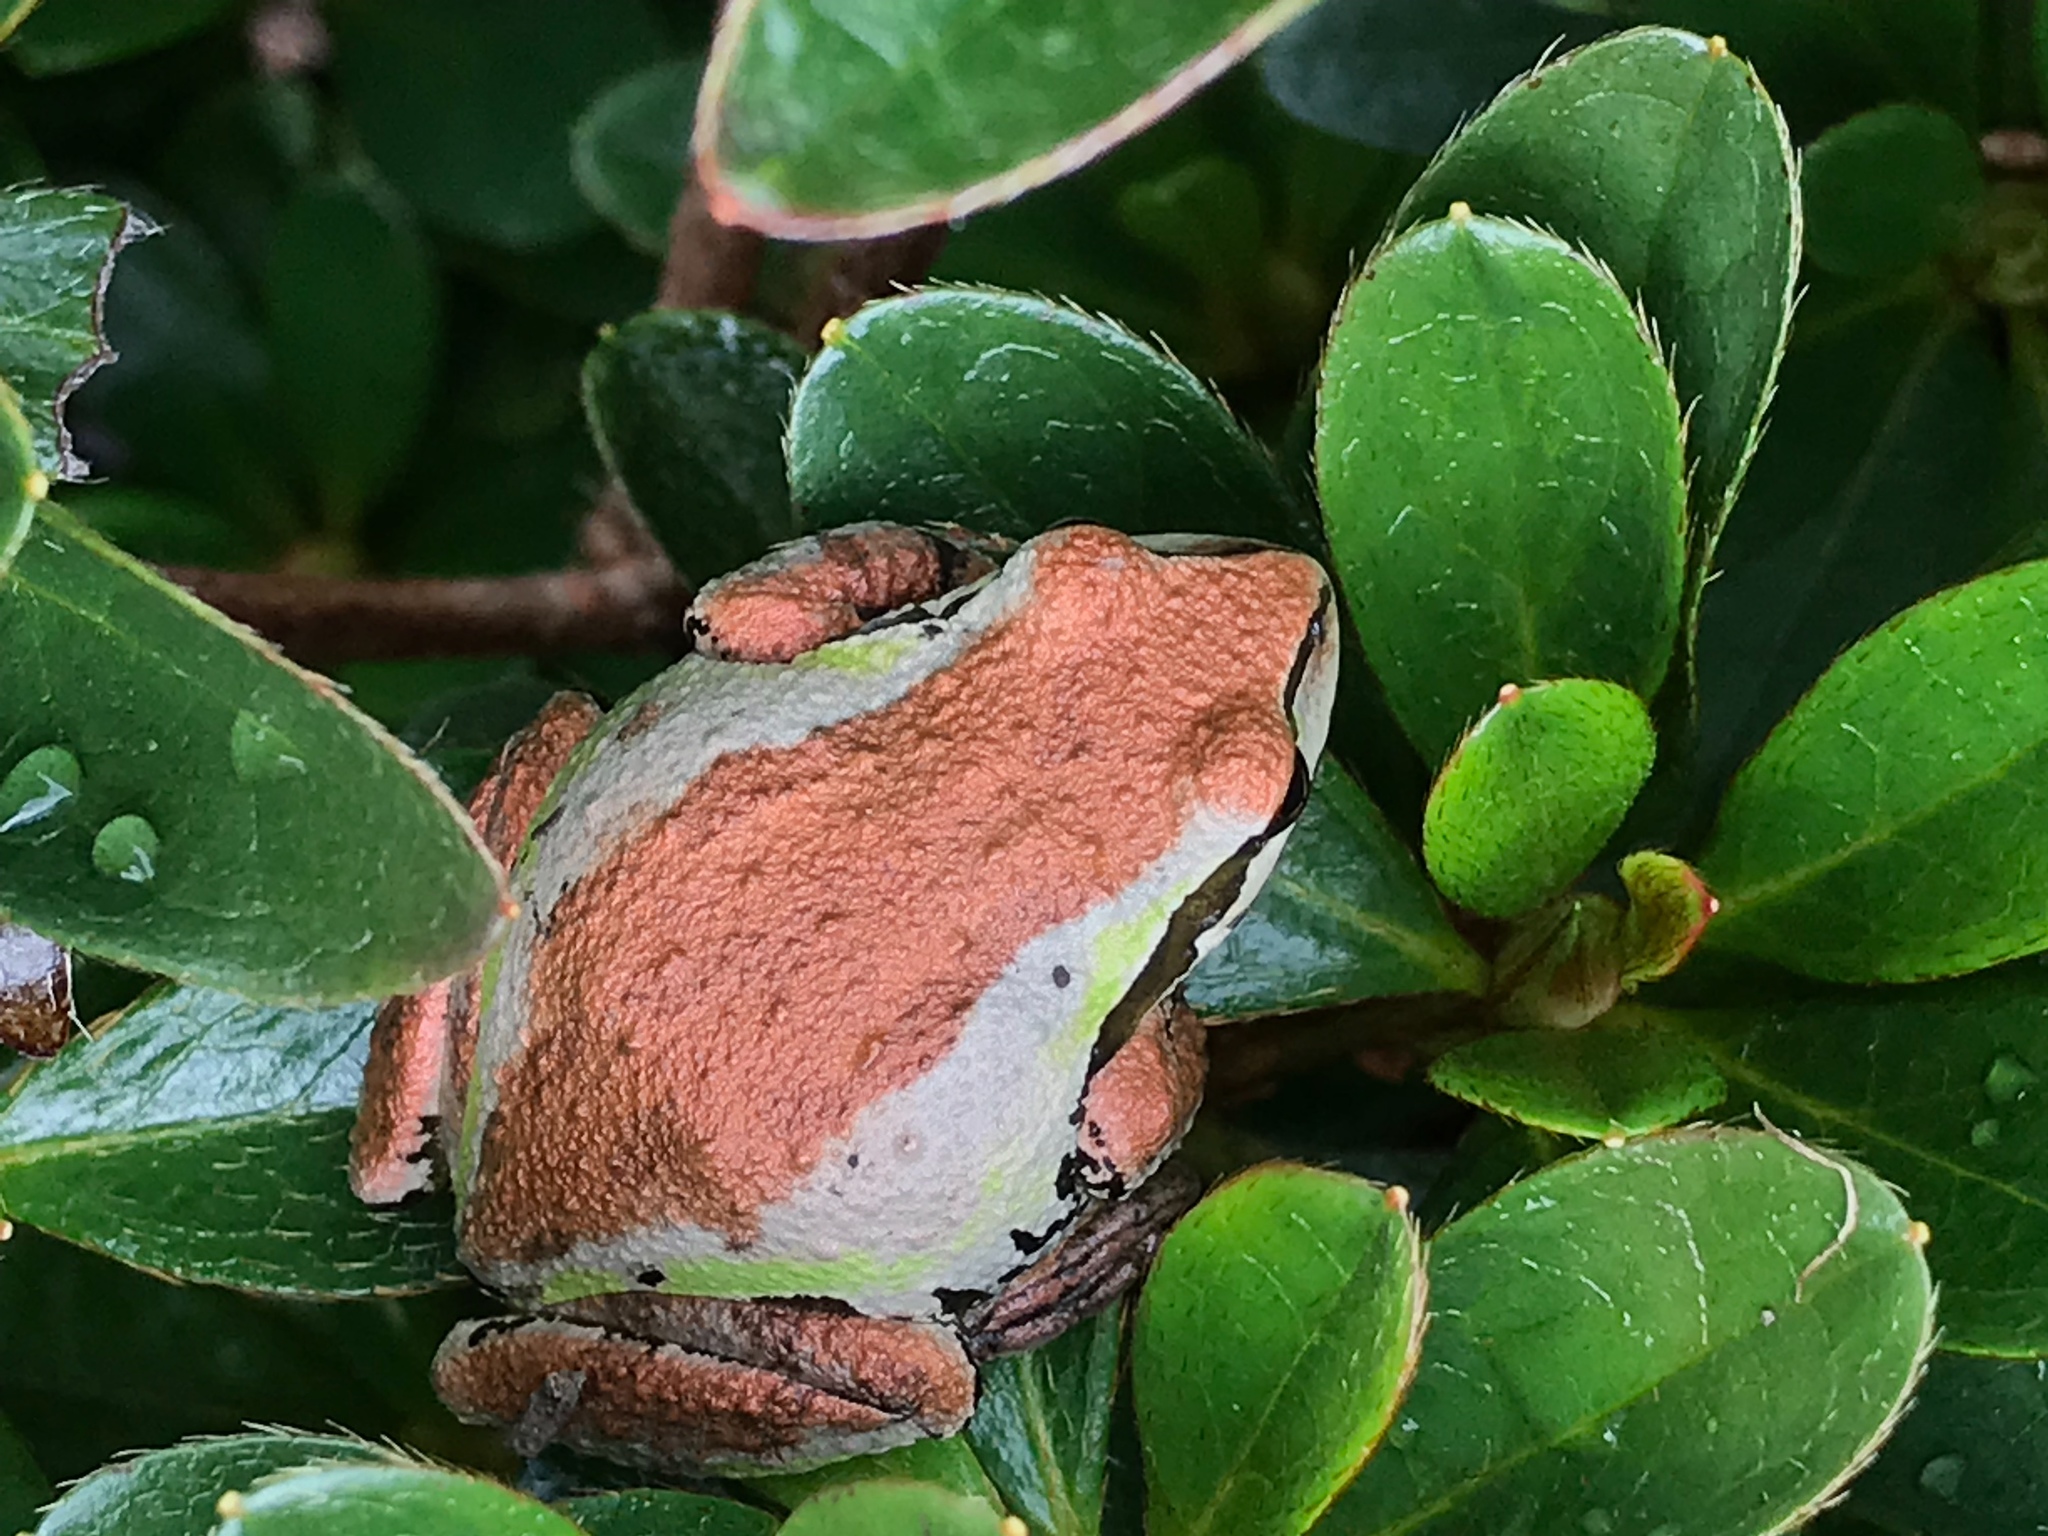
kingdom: Animalia
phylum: Chordata
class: Amphibia
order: Anura
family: Hylidae
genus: Pseudacris
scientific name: Pseudacris regilla
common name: Pacific chorus frog
